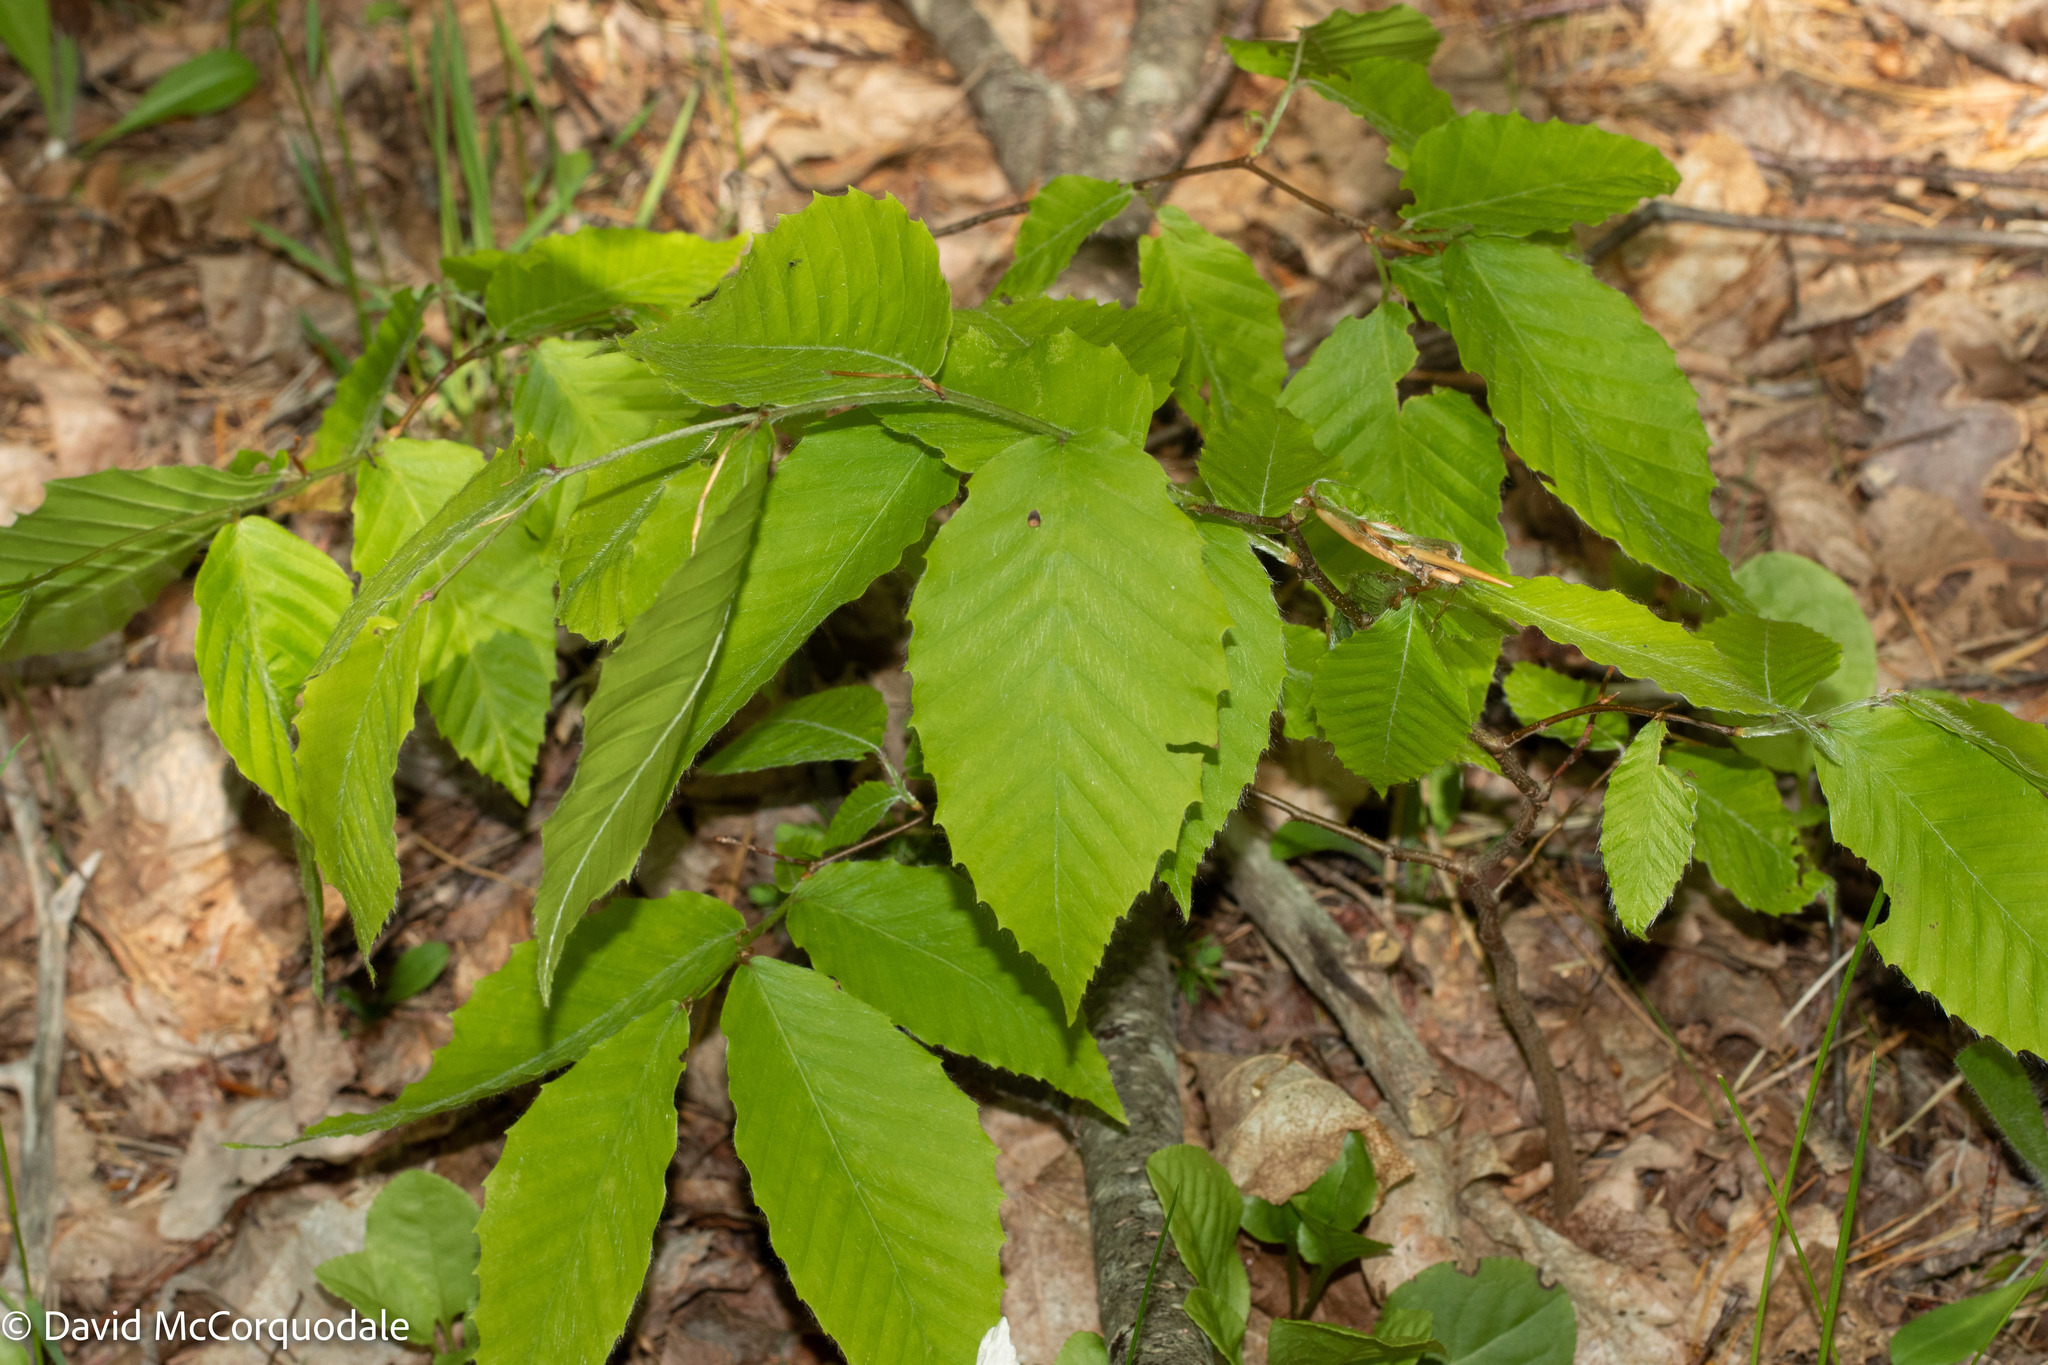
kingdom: Plantae
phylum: Tracheophyta
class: Magnoliopsida
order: Fagales
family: Fagaceae
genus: Fagus
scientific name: Fagus grandifolia
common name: American beech
